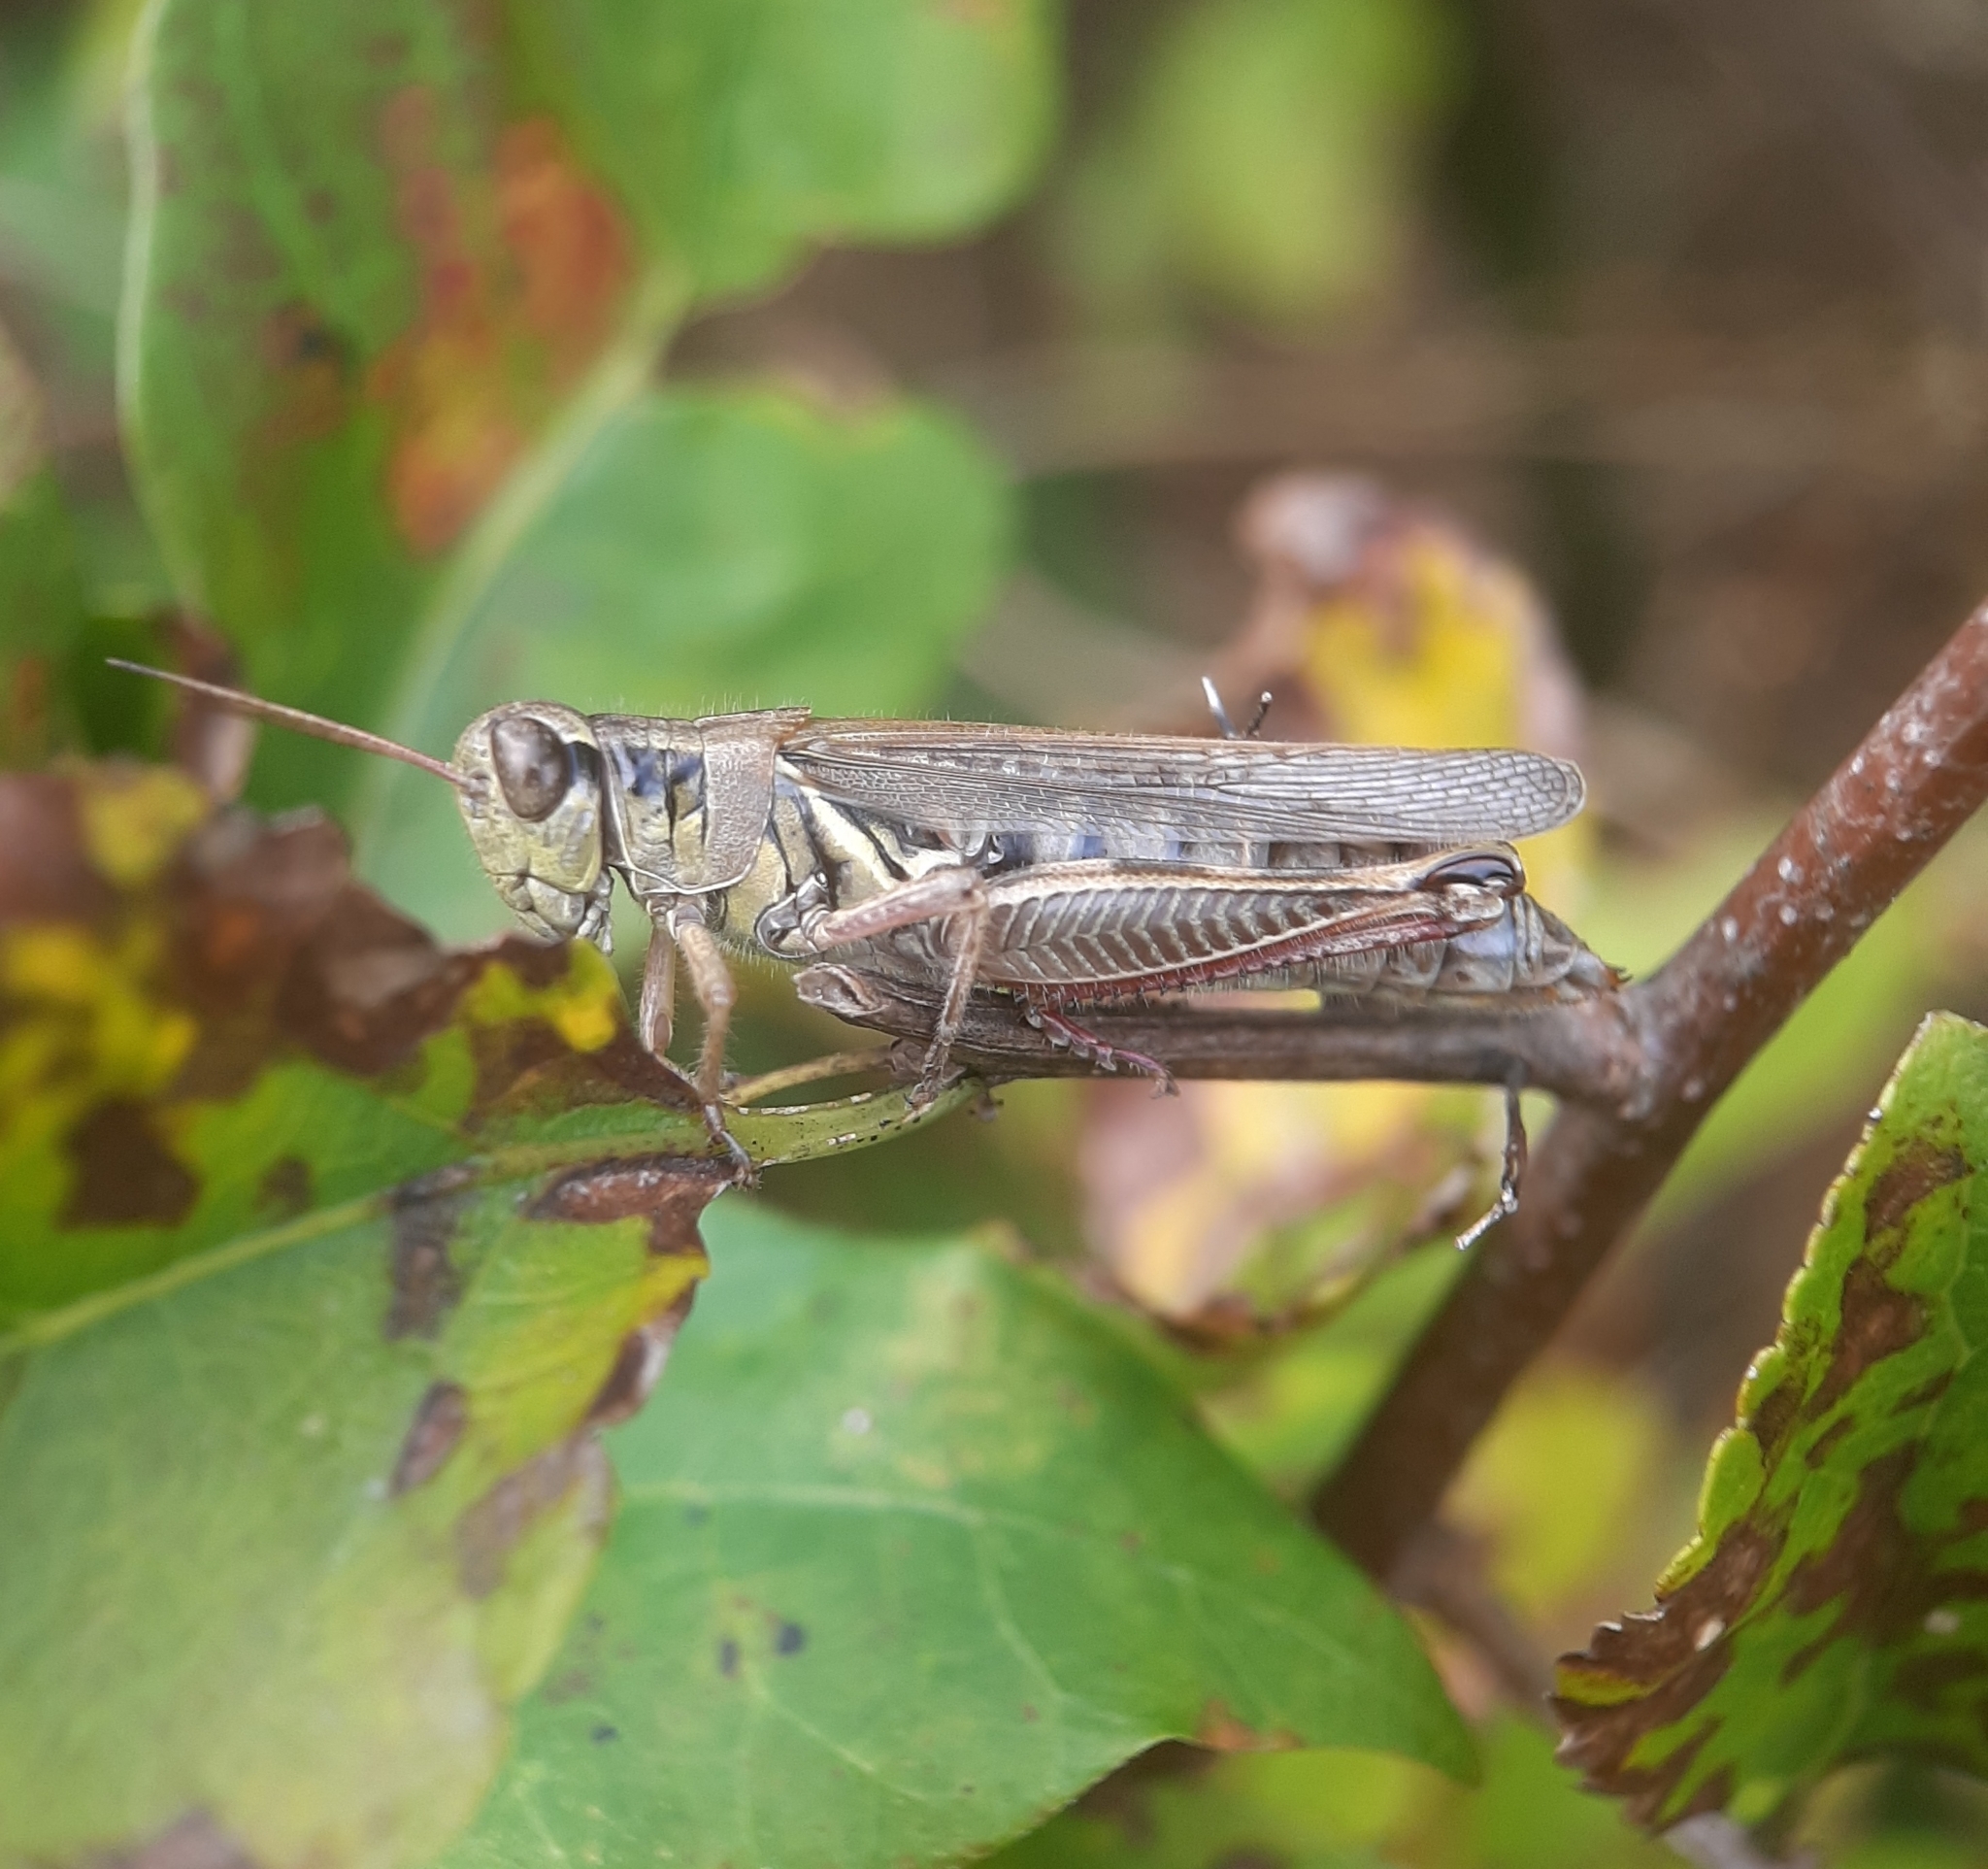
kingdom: Animalia
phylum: Arthropoda
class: Insecta
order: Orthoptera
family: Acrididae
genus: Melanoplus
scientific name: Melanoplus femurrubrum
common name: Red-legged grasshopper
